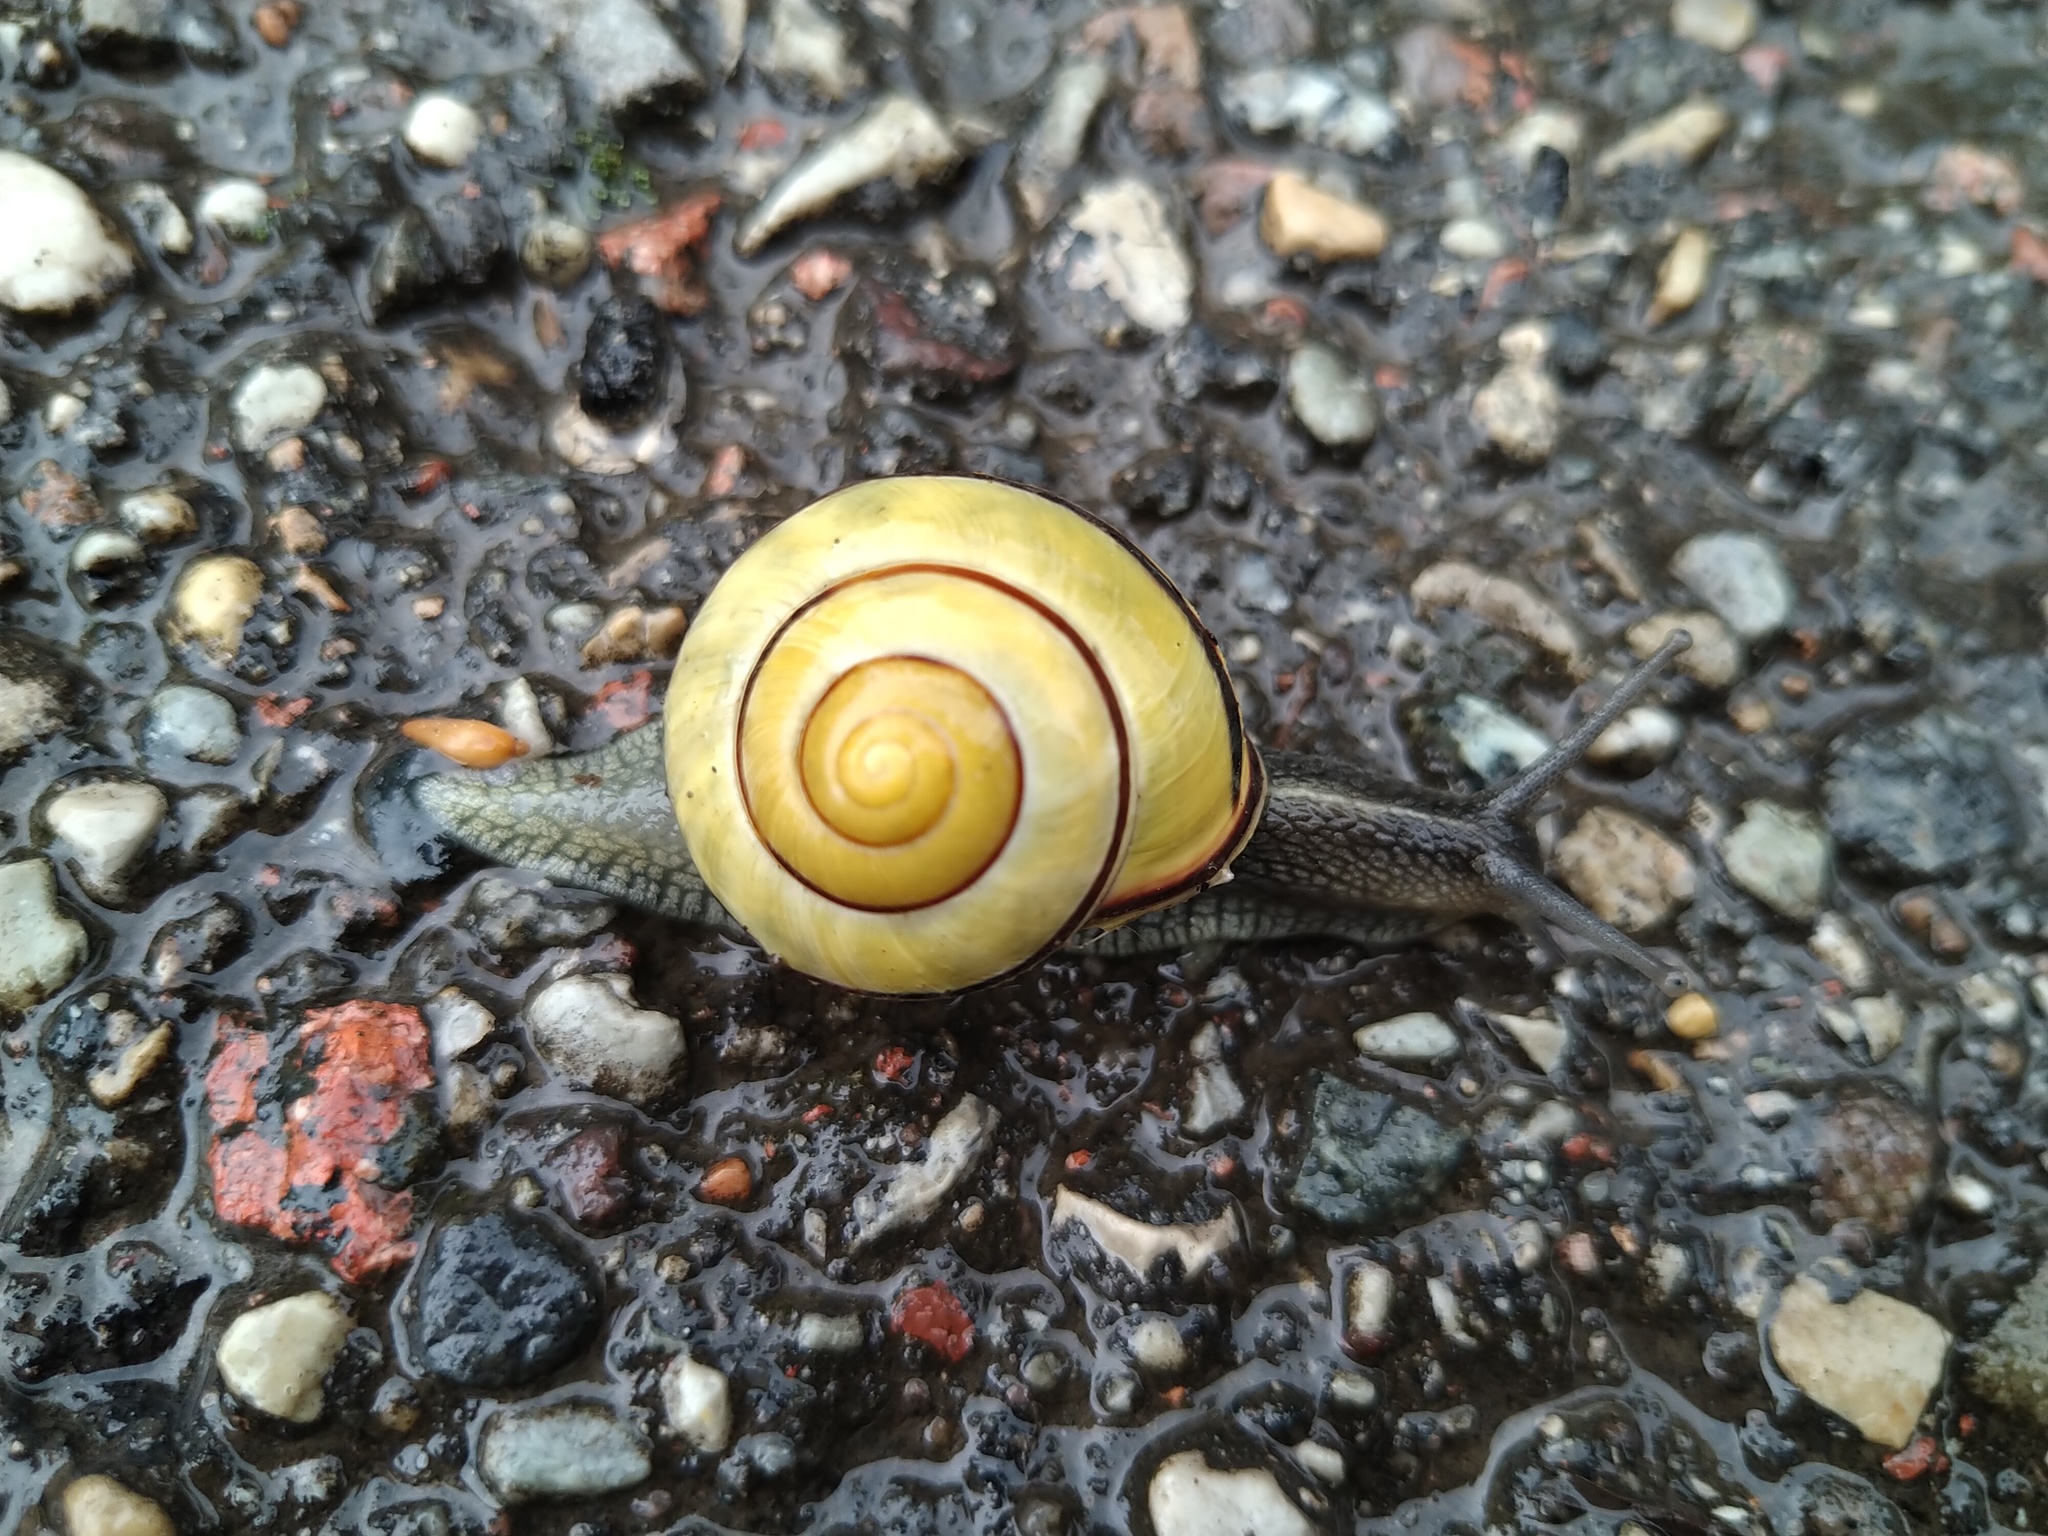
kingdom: Animalia
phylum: Mollusca
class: Gastropoda
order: Stylommatophora
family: Helicidae
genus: Cepaea
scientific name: Cepaea nemoralis
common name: Grovesnail
